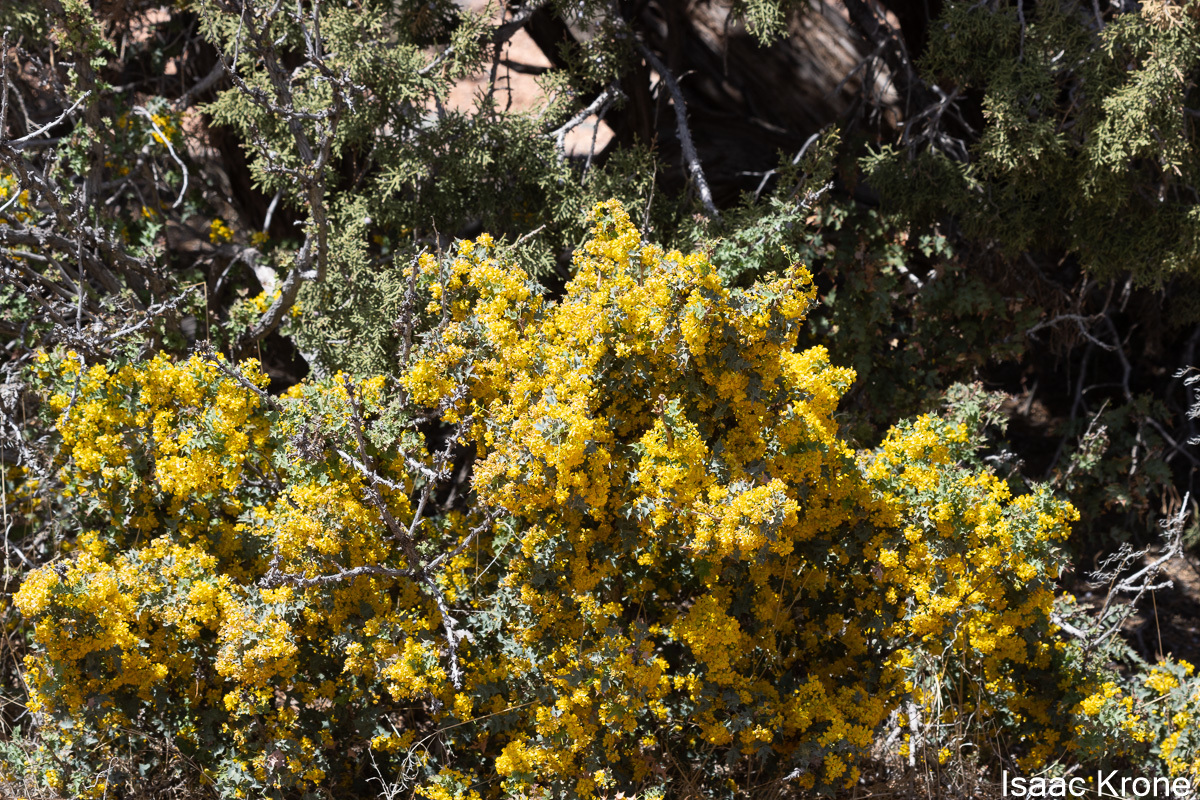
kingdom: Plantae
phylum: Tracheophyta
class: Magnoliopsida
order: Ranunculales
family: Berberidaceae
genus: Alloberberis
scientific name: Alloberberis fremontii
